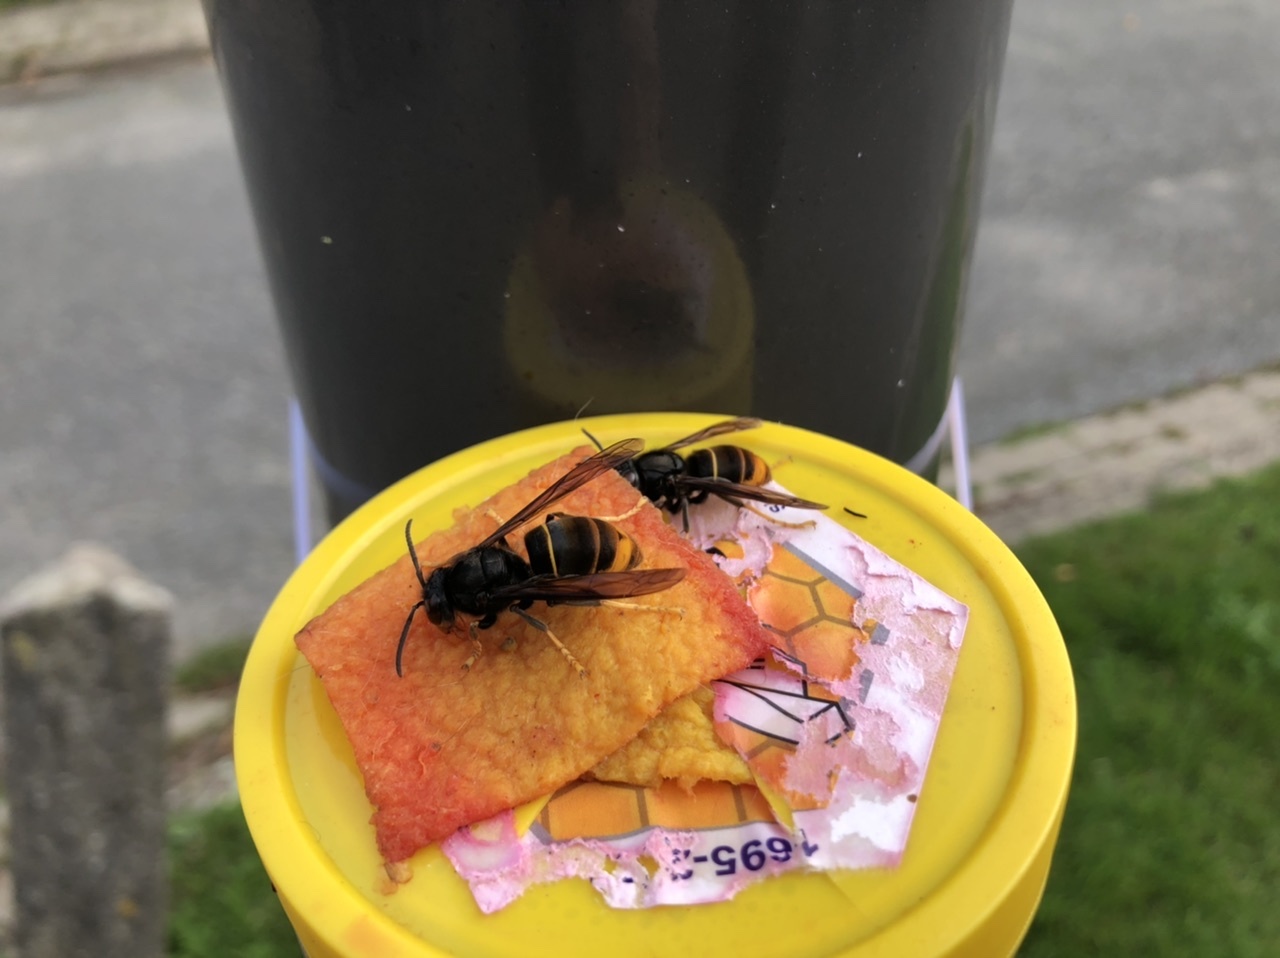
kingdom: Animalia
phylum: Arthropoda
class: Insecta
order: Hymenoptera
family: Vespidae
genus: Vespa
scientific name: Vespa velutina
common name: Asian hornet
